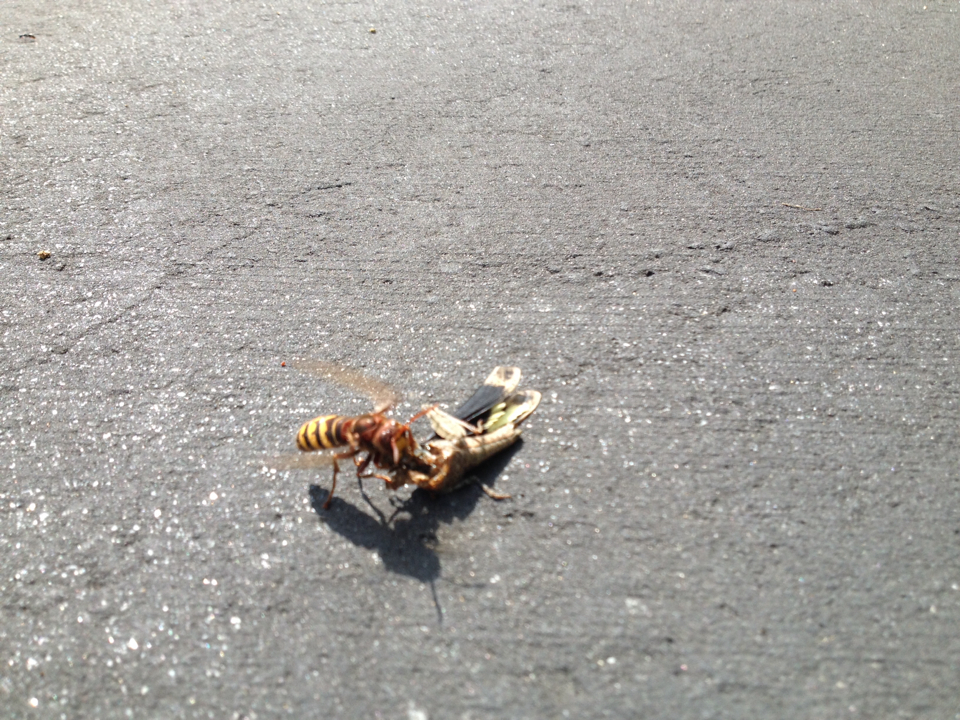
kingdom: Animalia
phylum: Arthropoda
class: Insecta
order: Hymenoptera
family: Vespidae
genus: Vespa
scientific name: Vespa crabro
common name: Hornet
